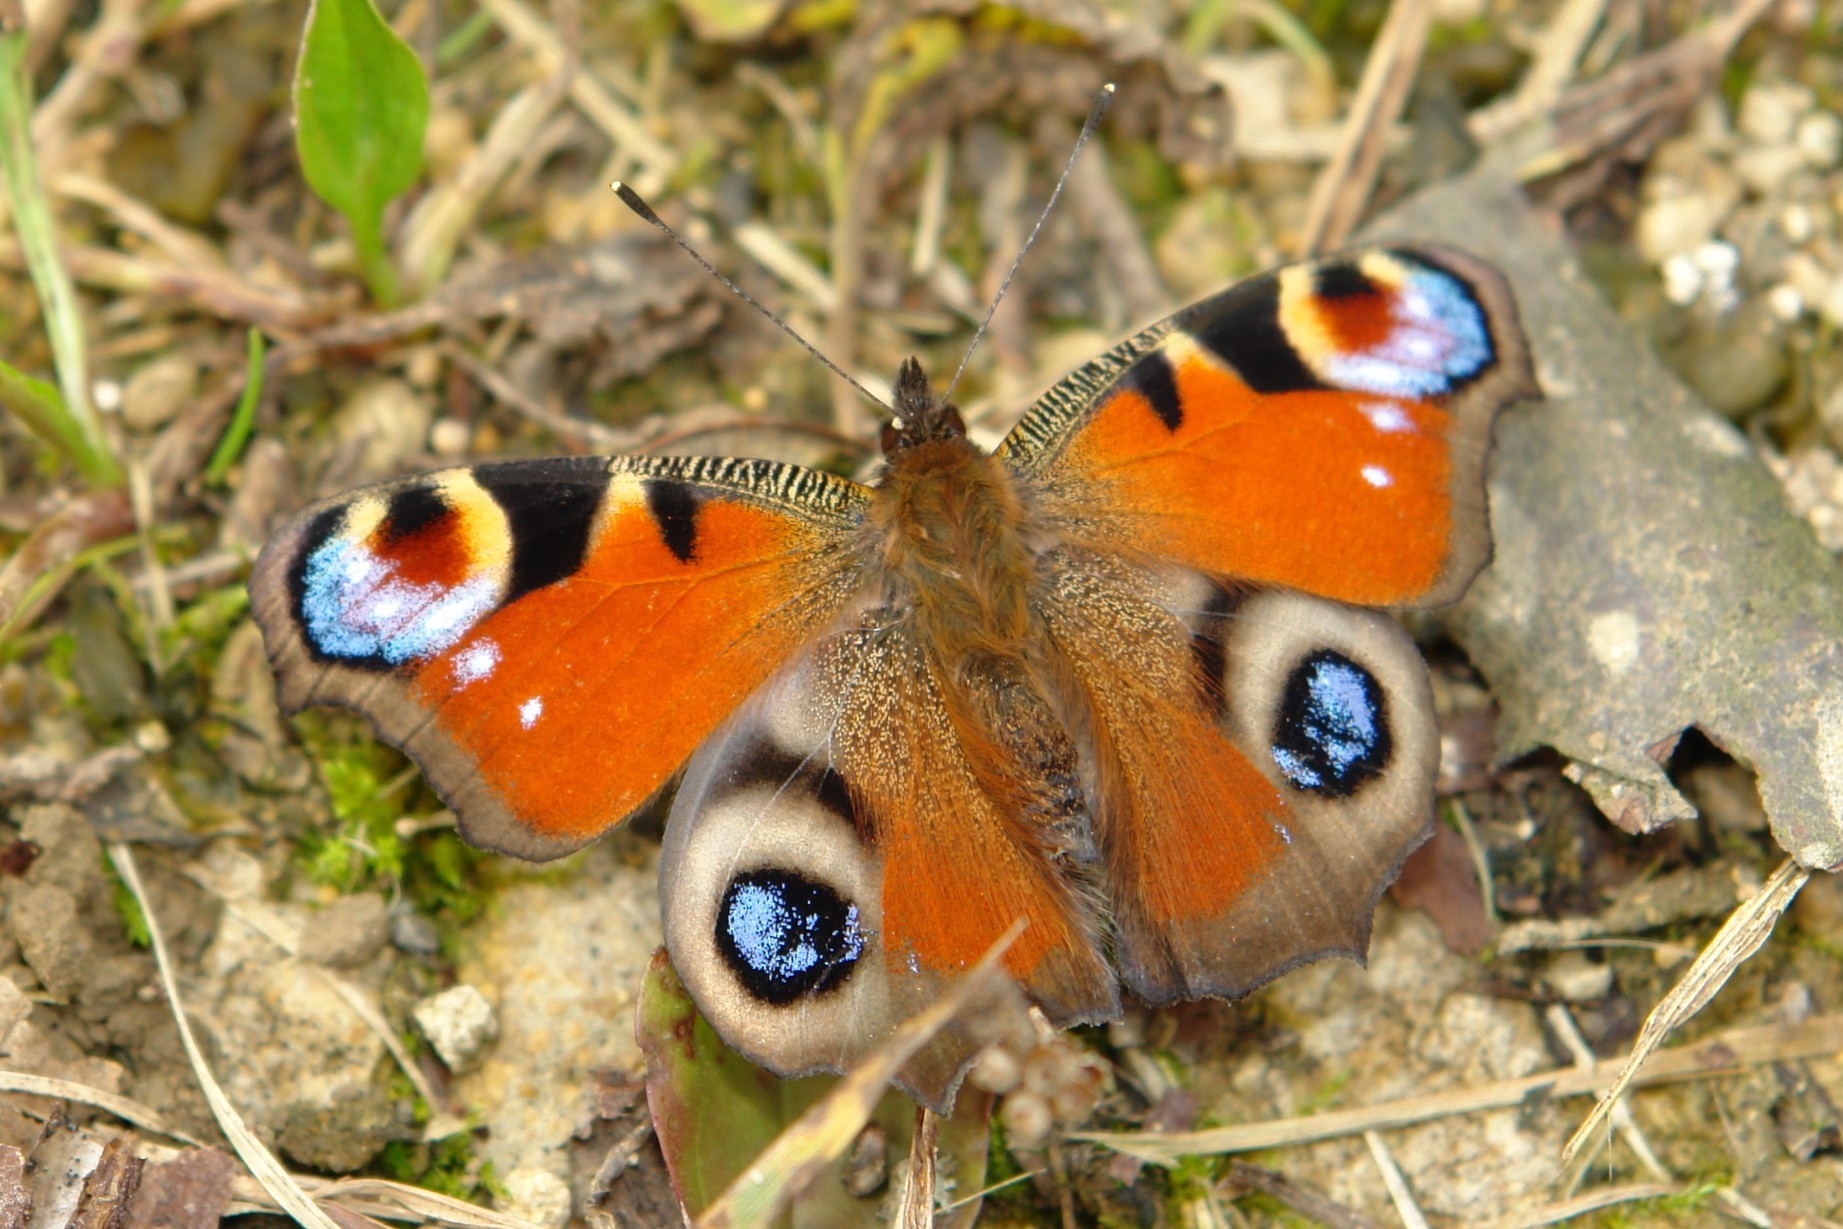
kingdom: Animalia
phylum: Arthropoda
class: Insecta
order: Lepidoptera
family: Nymphalidae
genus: Aglais
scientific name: Aglais io
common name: Peacock
